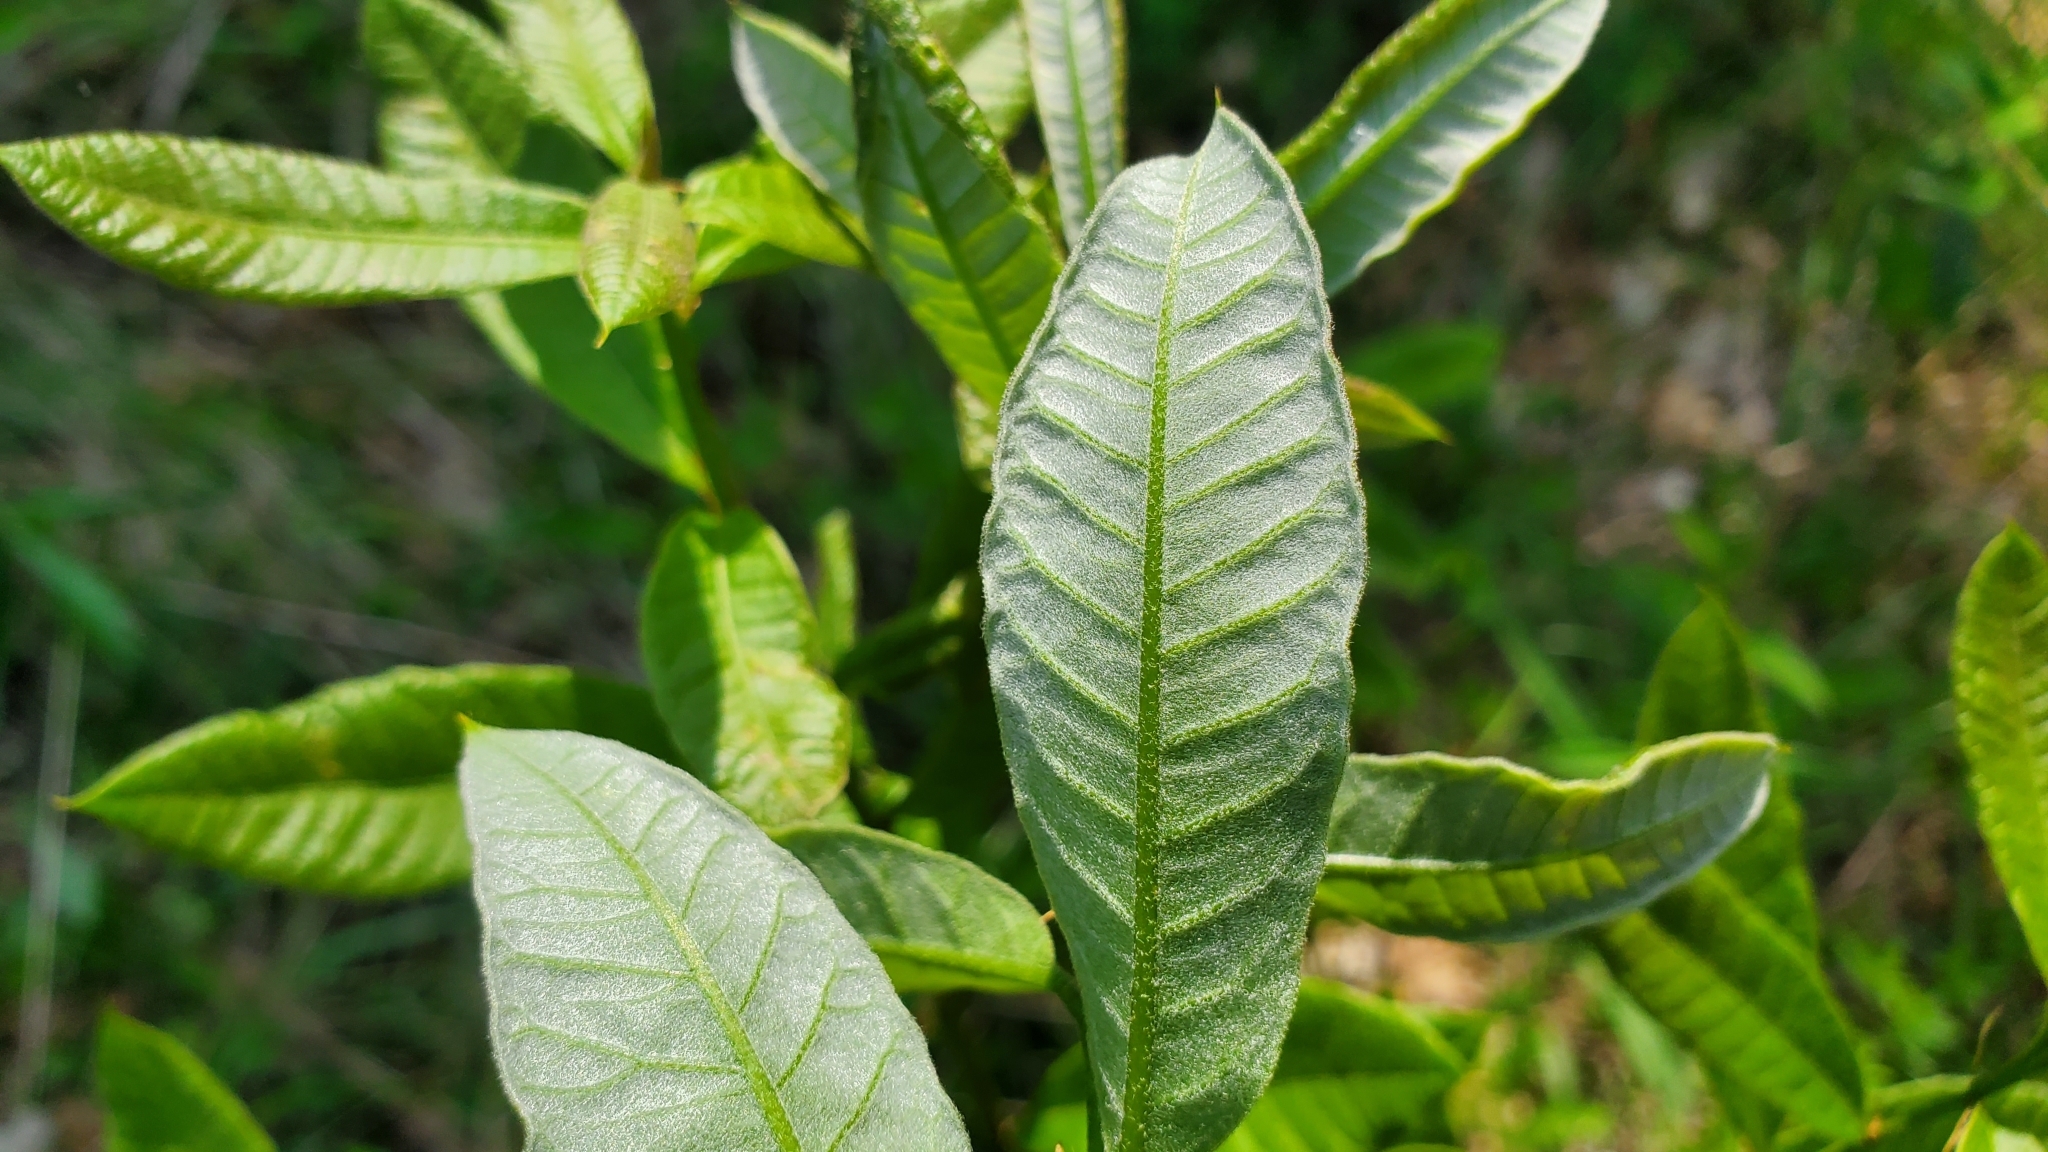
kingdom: Plantae
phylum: Tracheophyta
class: Magnoliopsida
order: Fagales
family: Fagaceae
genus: Quercus
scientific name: Quercus imbricaria
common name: Shingle oak
